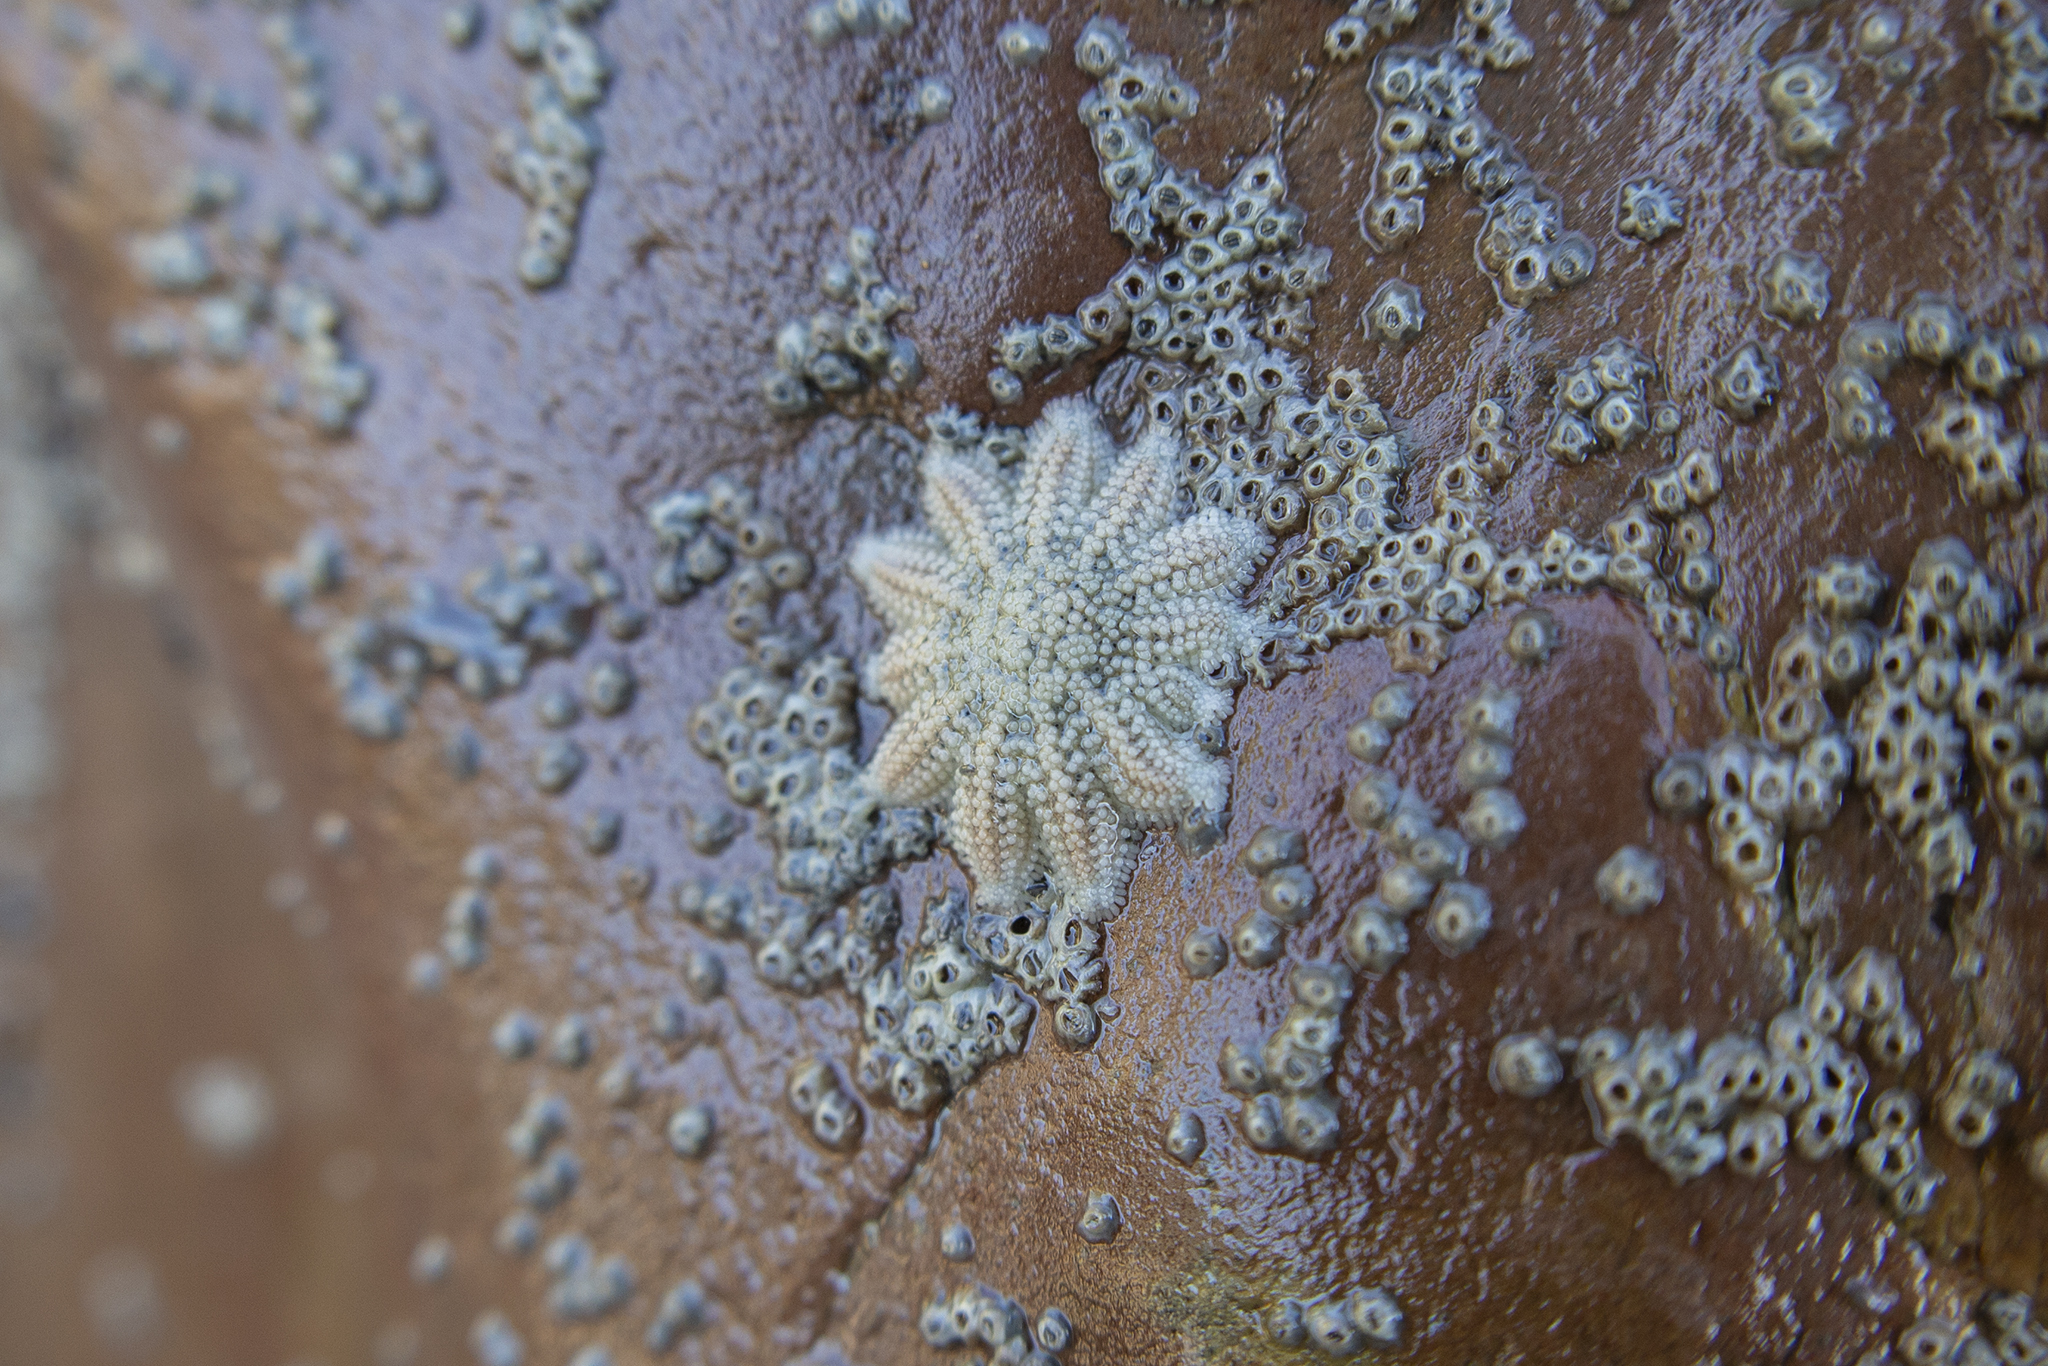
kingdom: Animalia
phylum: Echinodermata
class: Asteroidea
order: Forcipulatida
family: Stichasteridae
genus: Stichaster
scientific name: Stichaster australis
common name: Reef starfish
